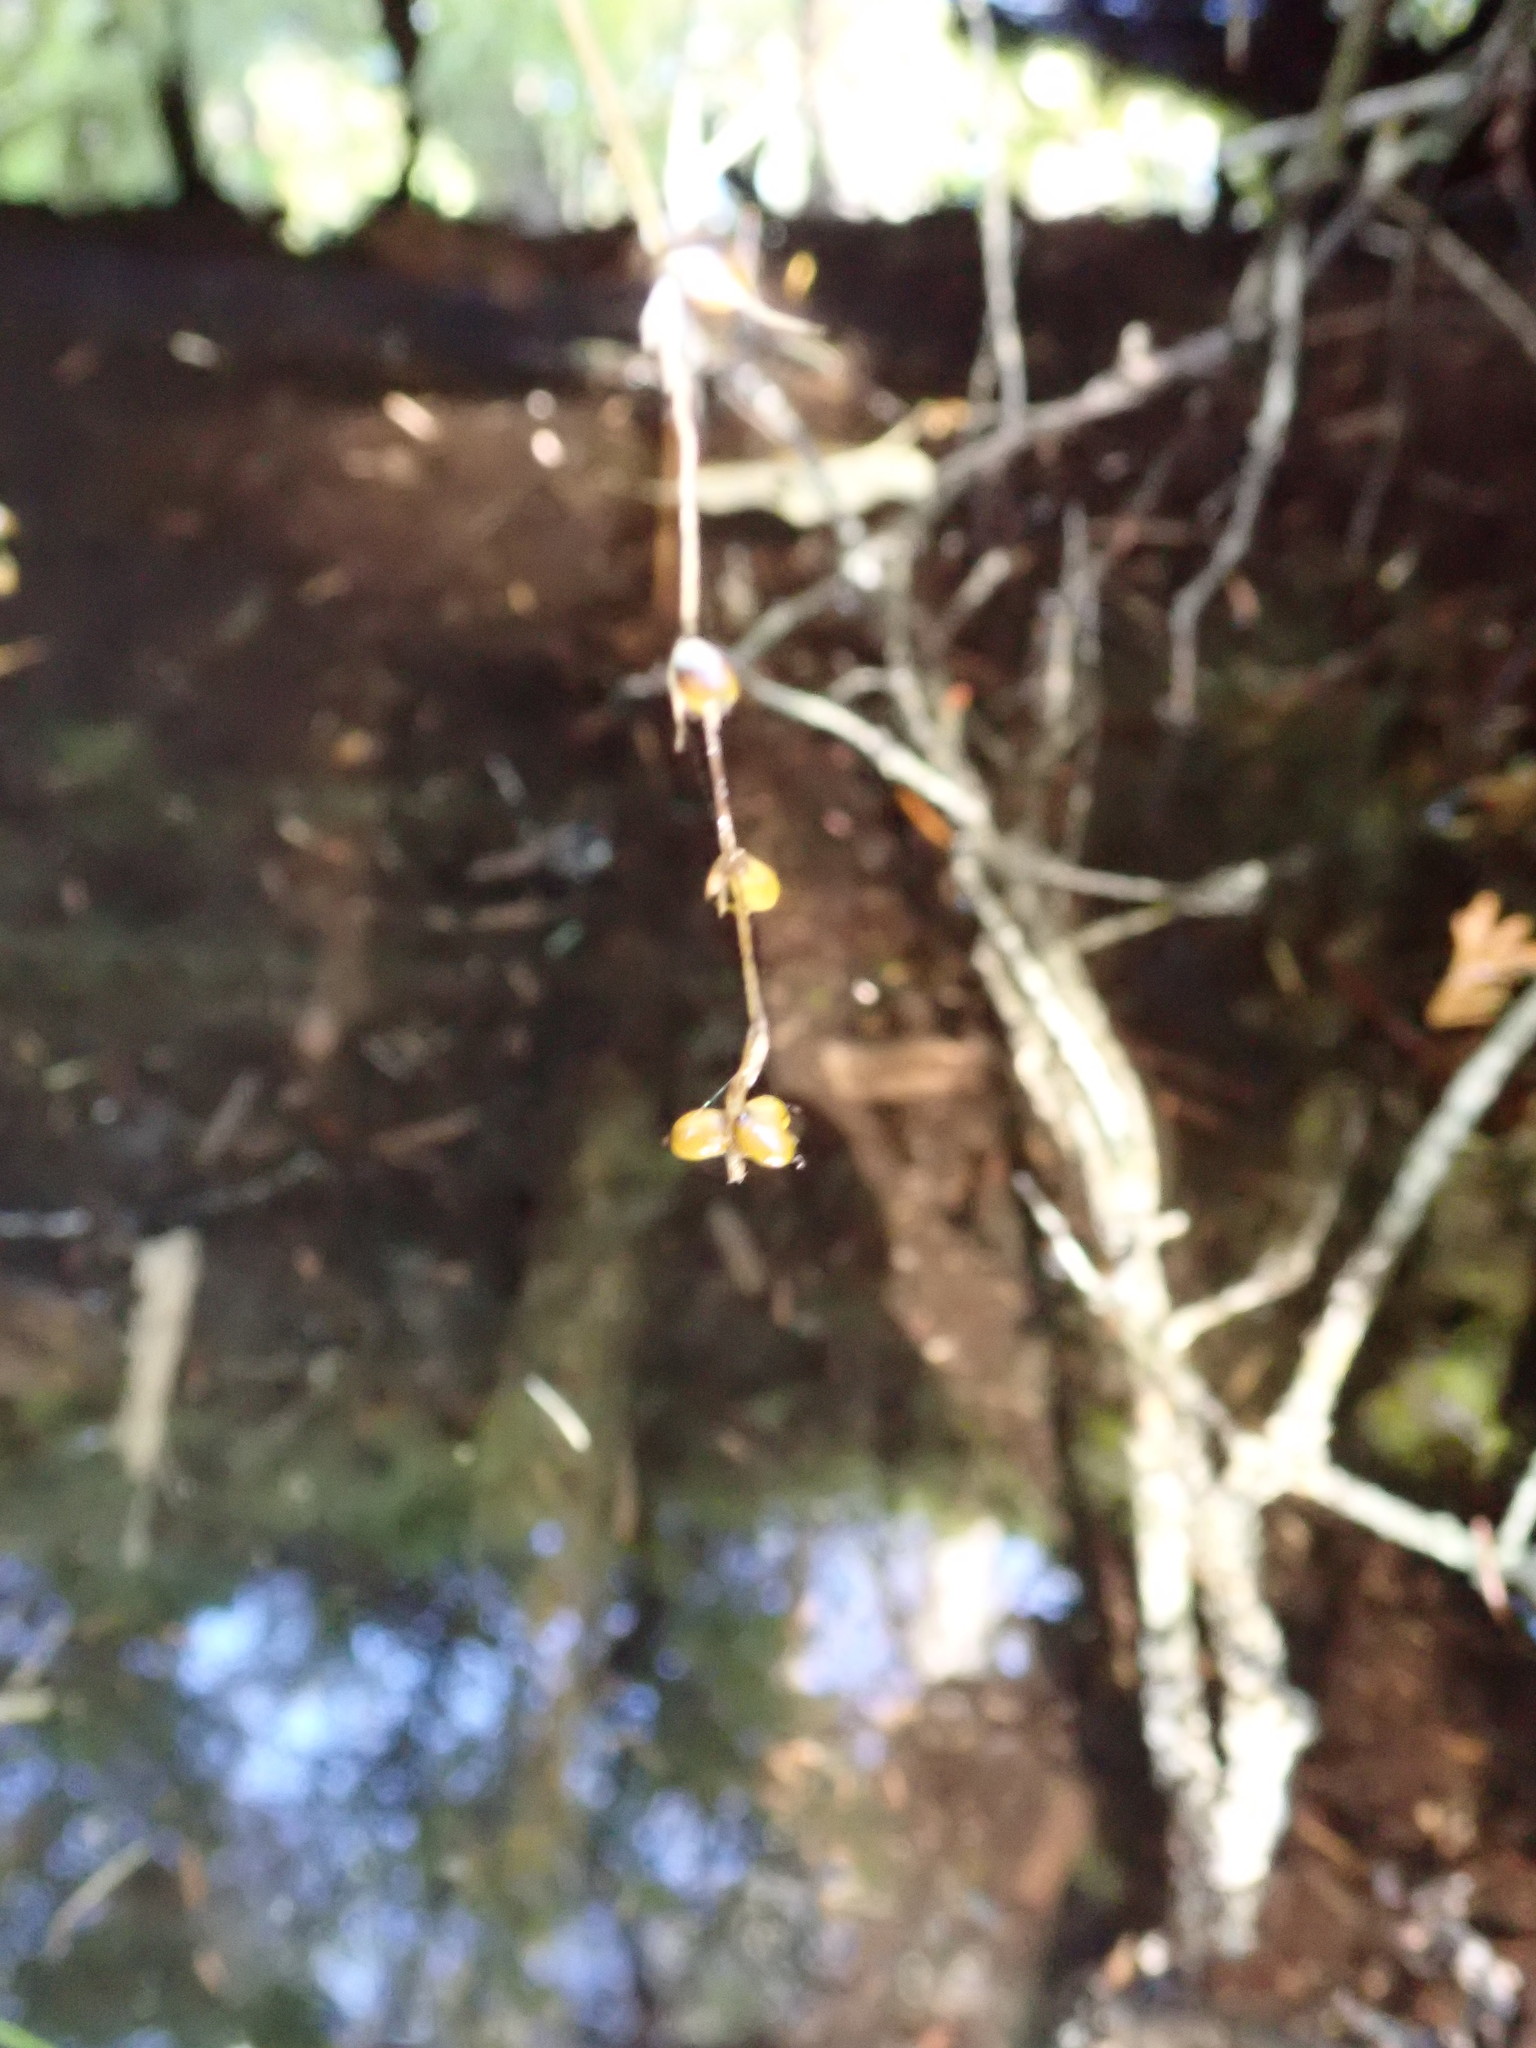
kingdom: Plantae
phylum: Tracheophyta
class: Liliopsida
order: Poales
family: Cyperaceae
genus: Carex
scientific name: Carex disperma
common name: Short-leaved sedge
